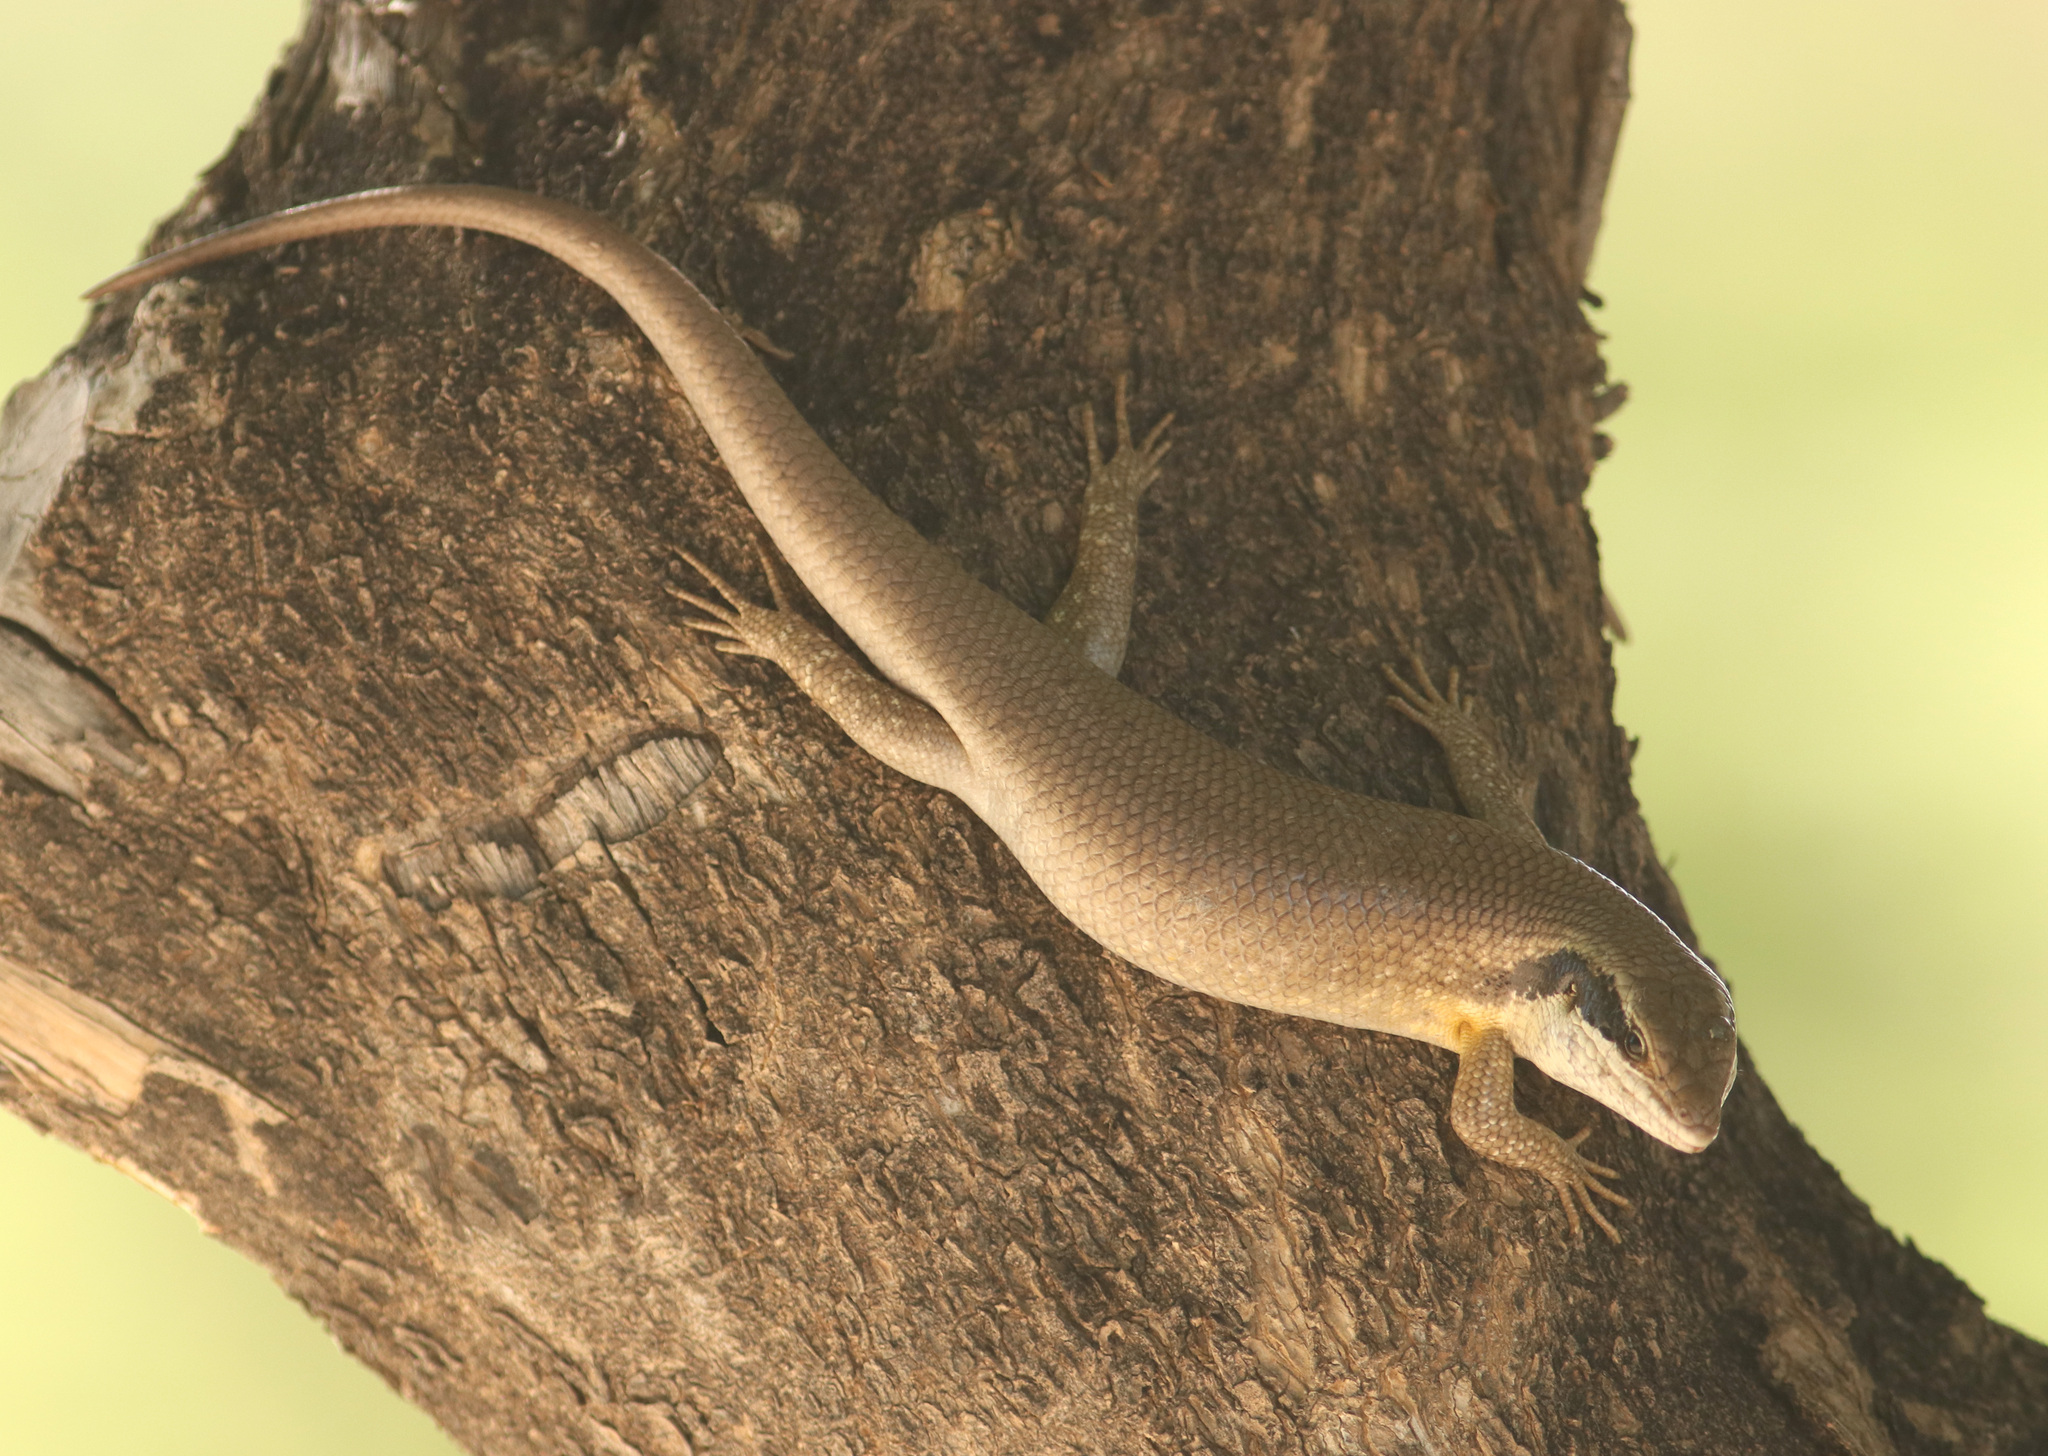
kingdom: Animalia
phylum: Chordata
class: Squamata
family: Scincidae
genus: Trachylepis
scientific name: Trachylepis binotata
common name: Bocage's mabuya
